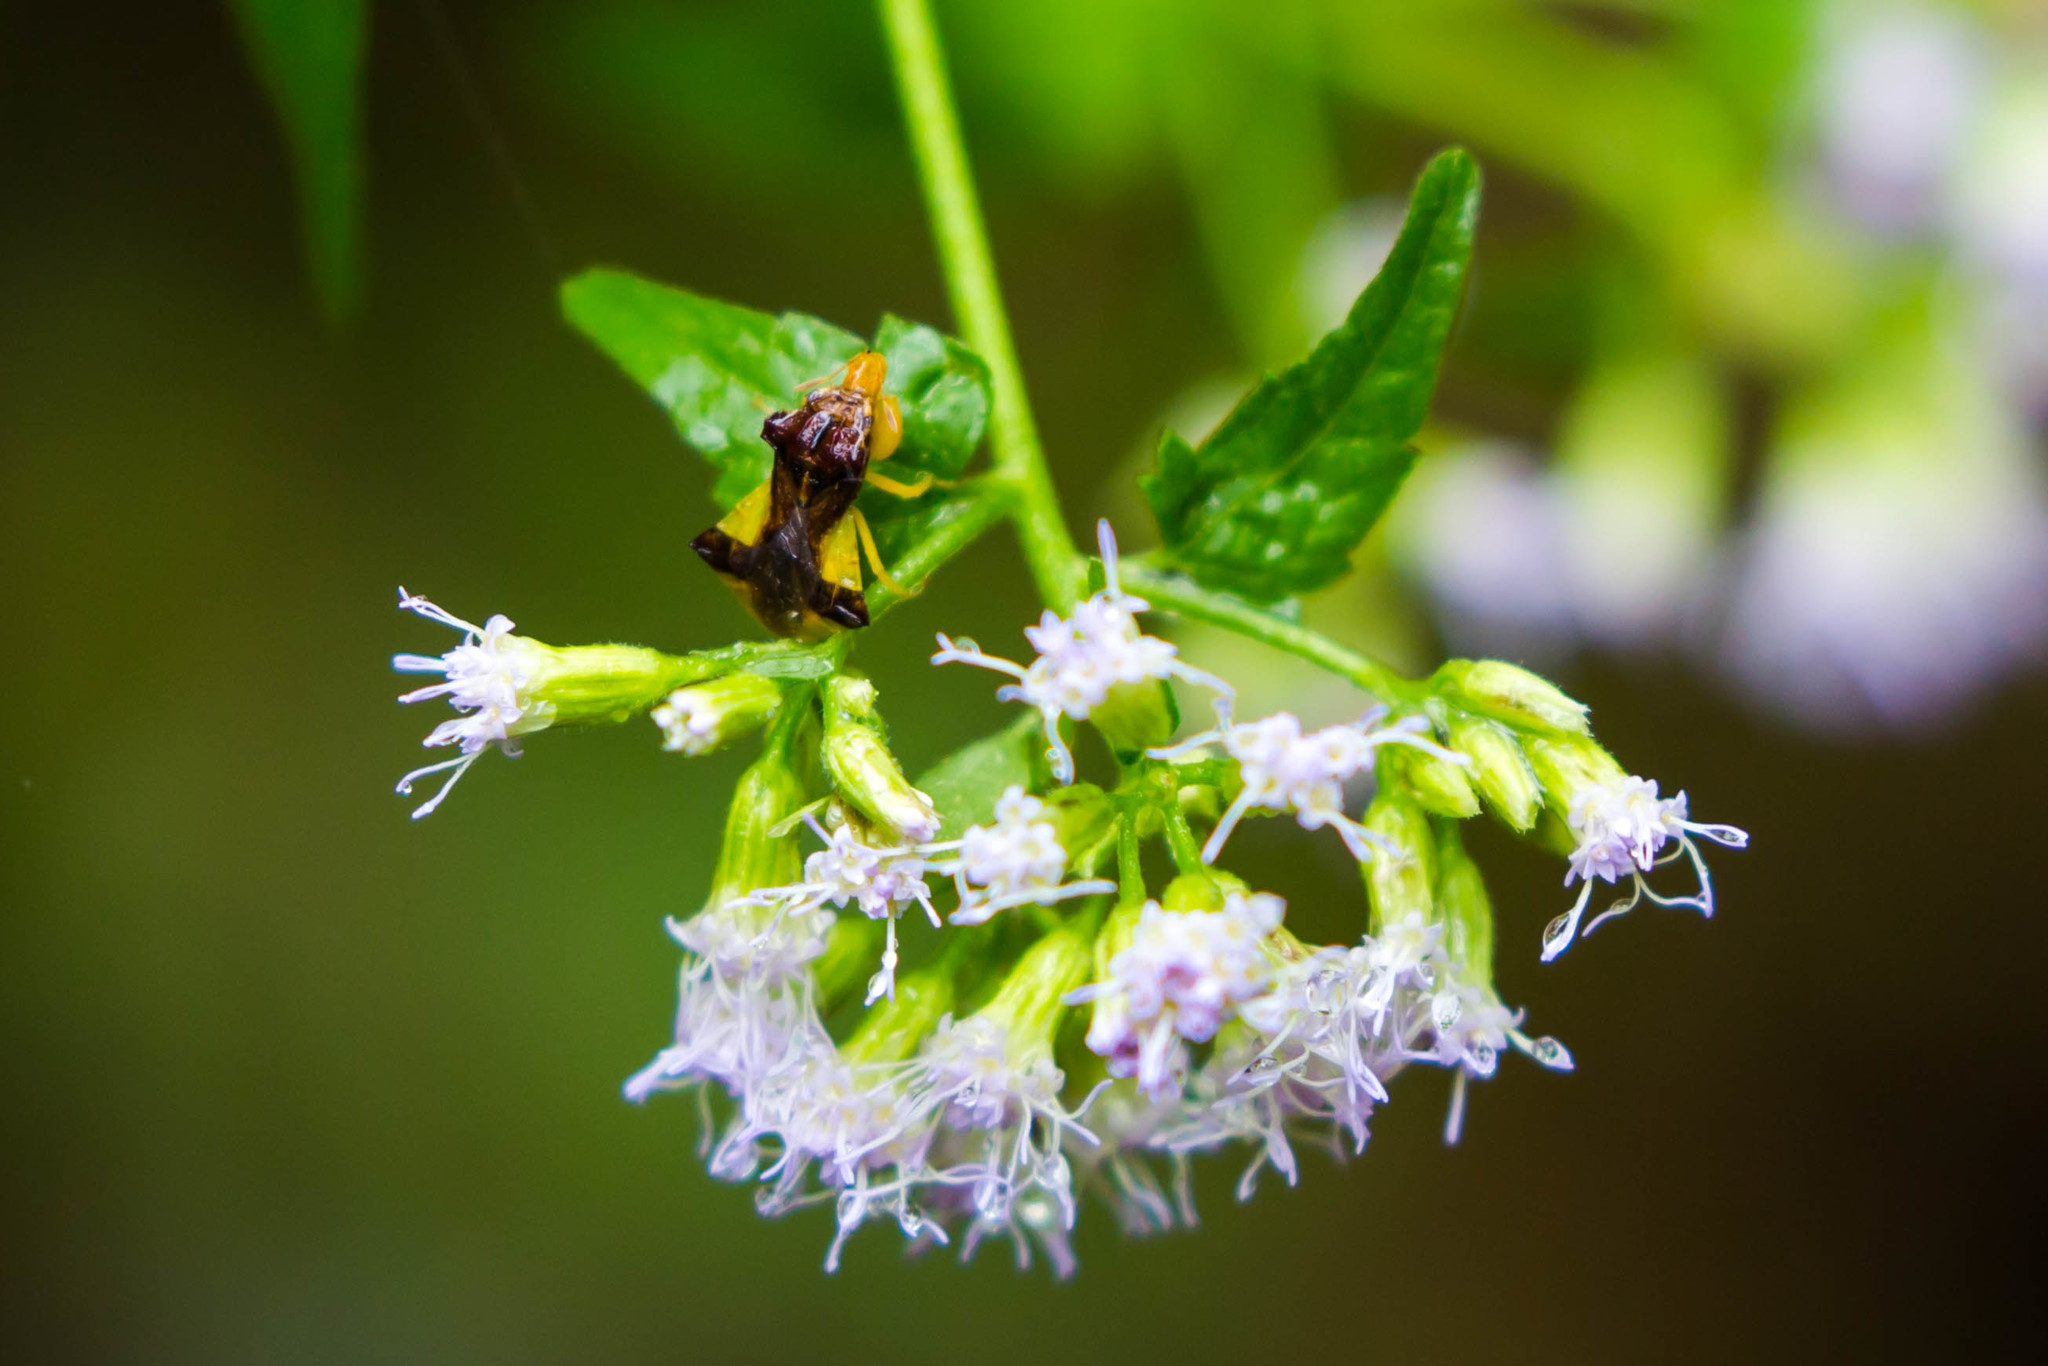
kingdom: Animalia
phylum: Arthropoda
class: Insecta
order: Hemiptera
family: Reduviidae
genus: Phymata
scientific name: Phymata pennsylvanica
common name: Pennsylvania ambush bug
